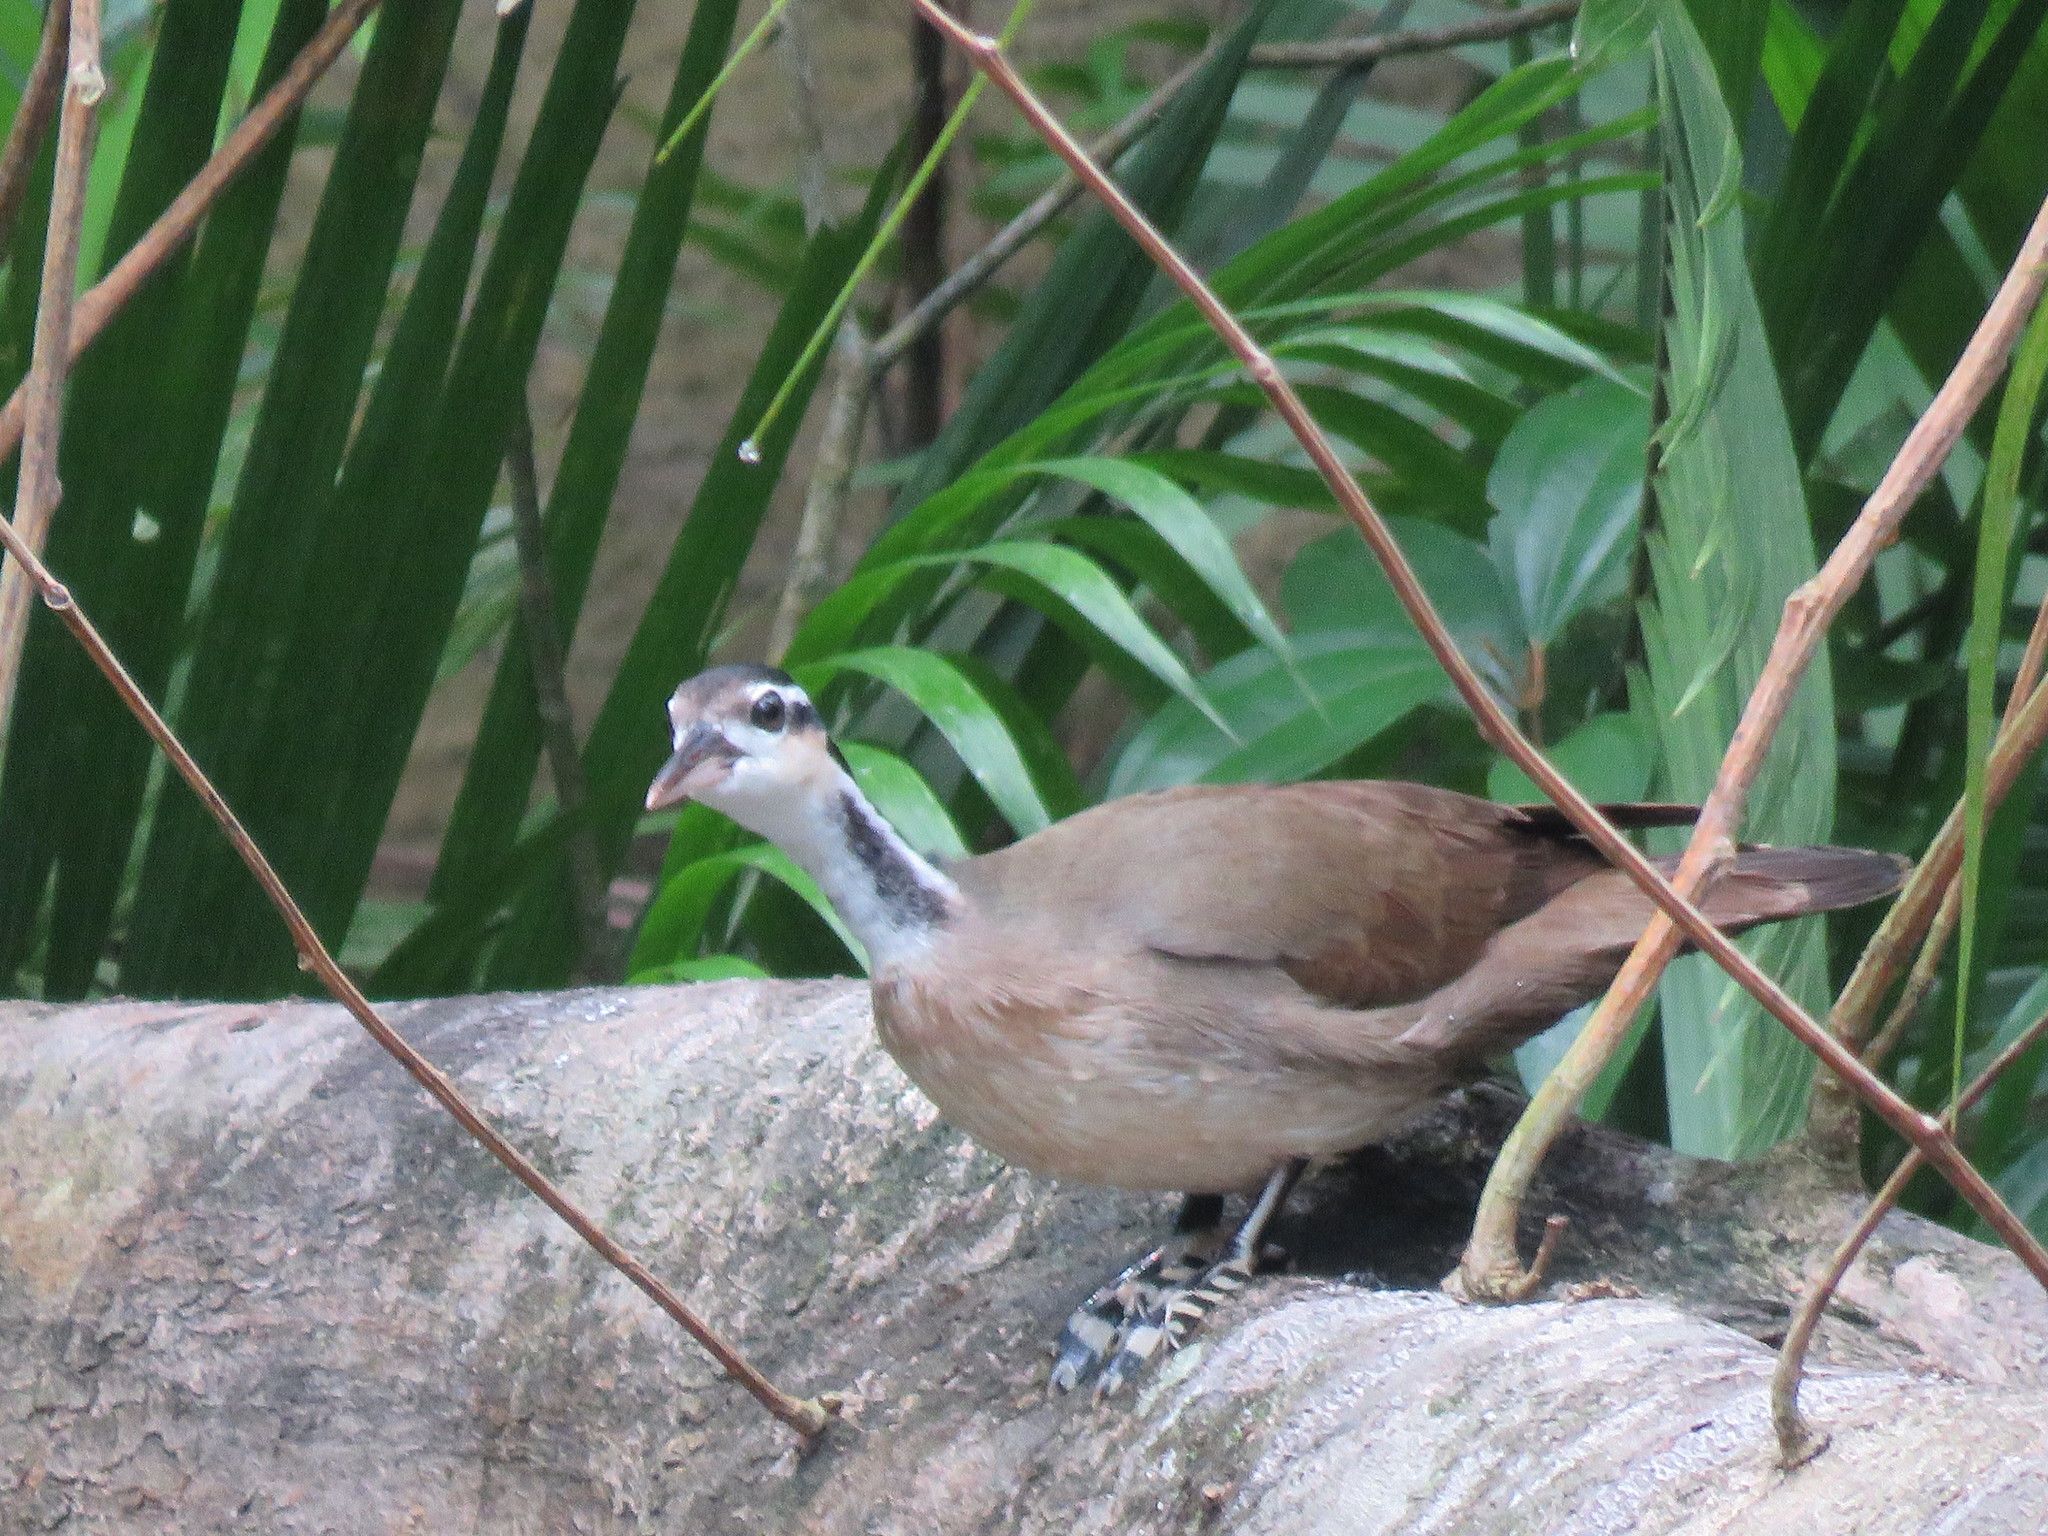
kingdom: Animalia
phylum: Chordata
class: Aves
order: Gruiformes
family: Heliornithidae
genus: Heliornis
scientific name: Heliornis fulica
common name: Sungrebe
